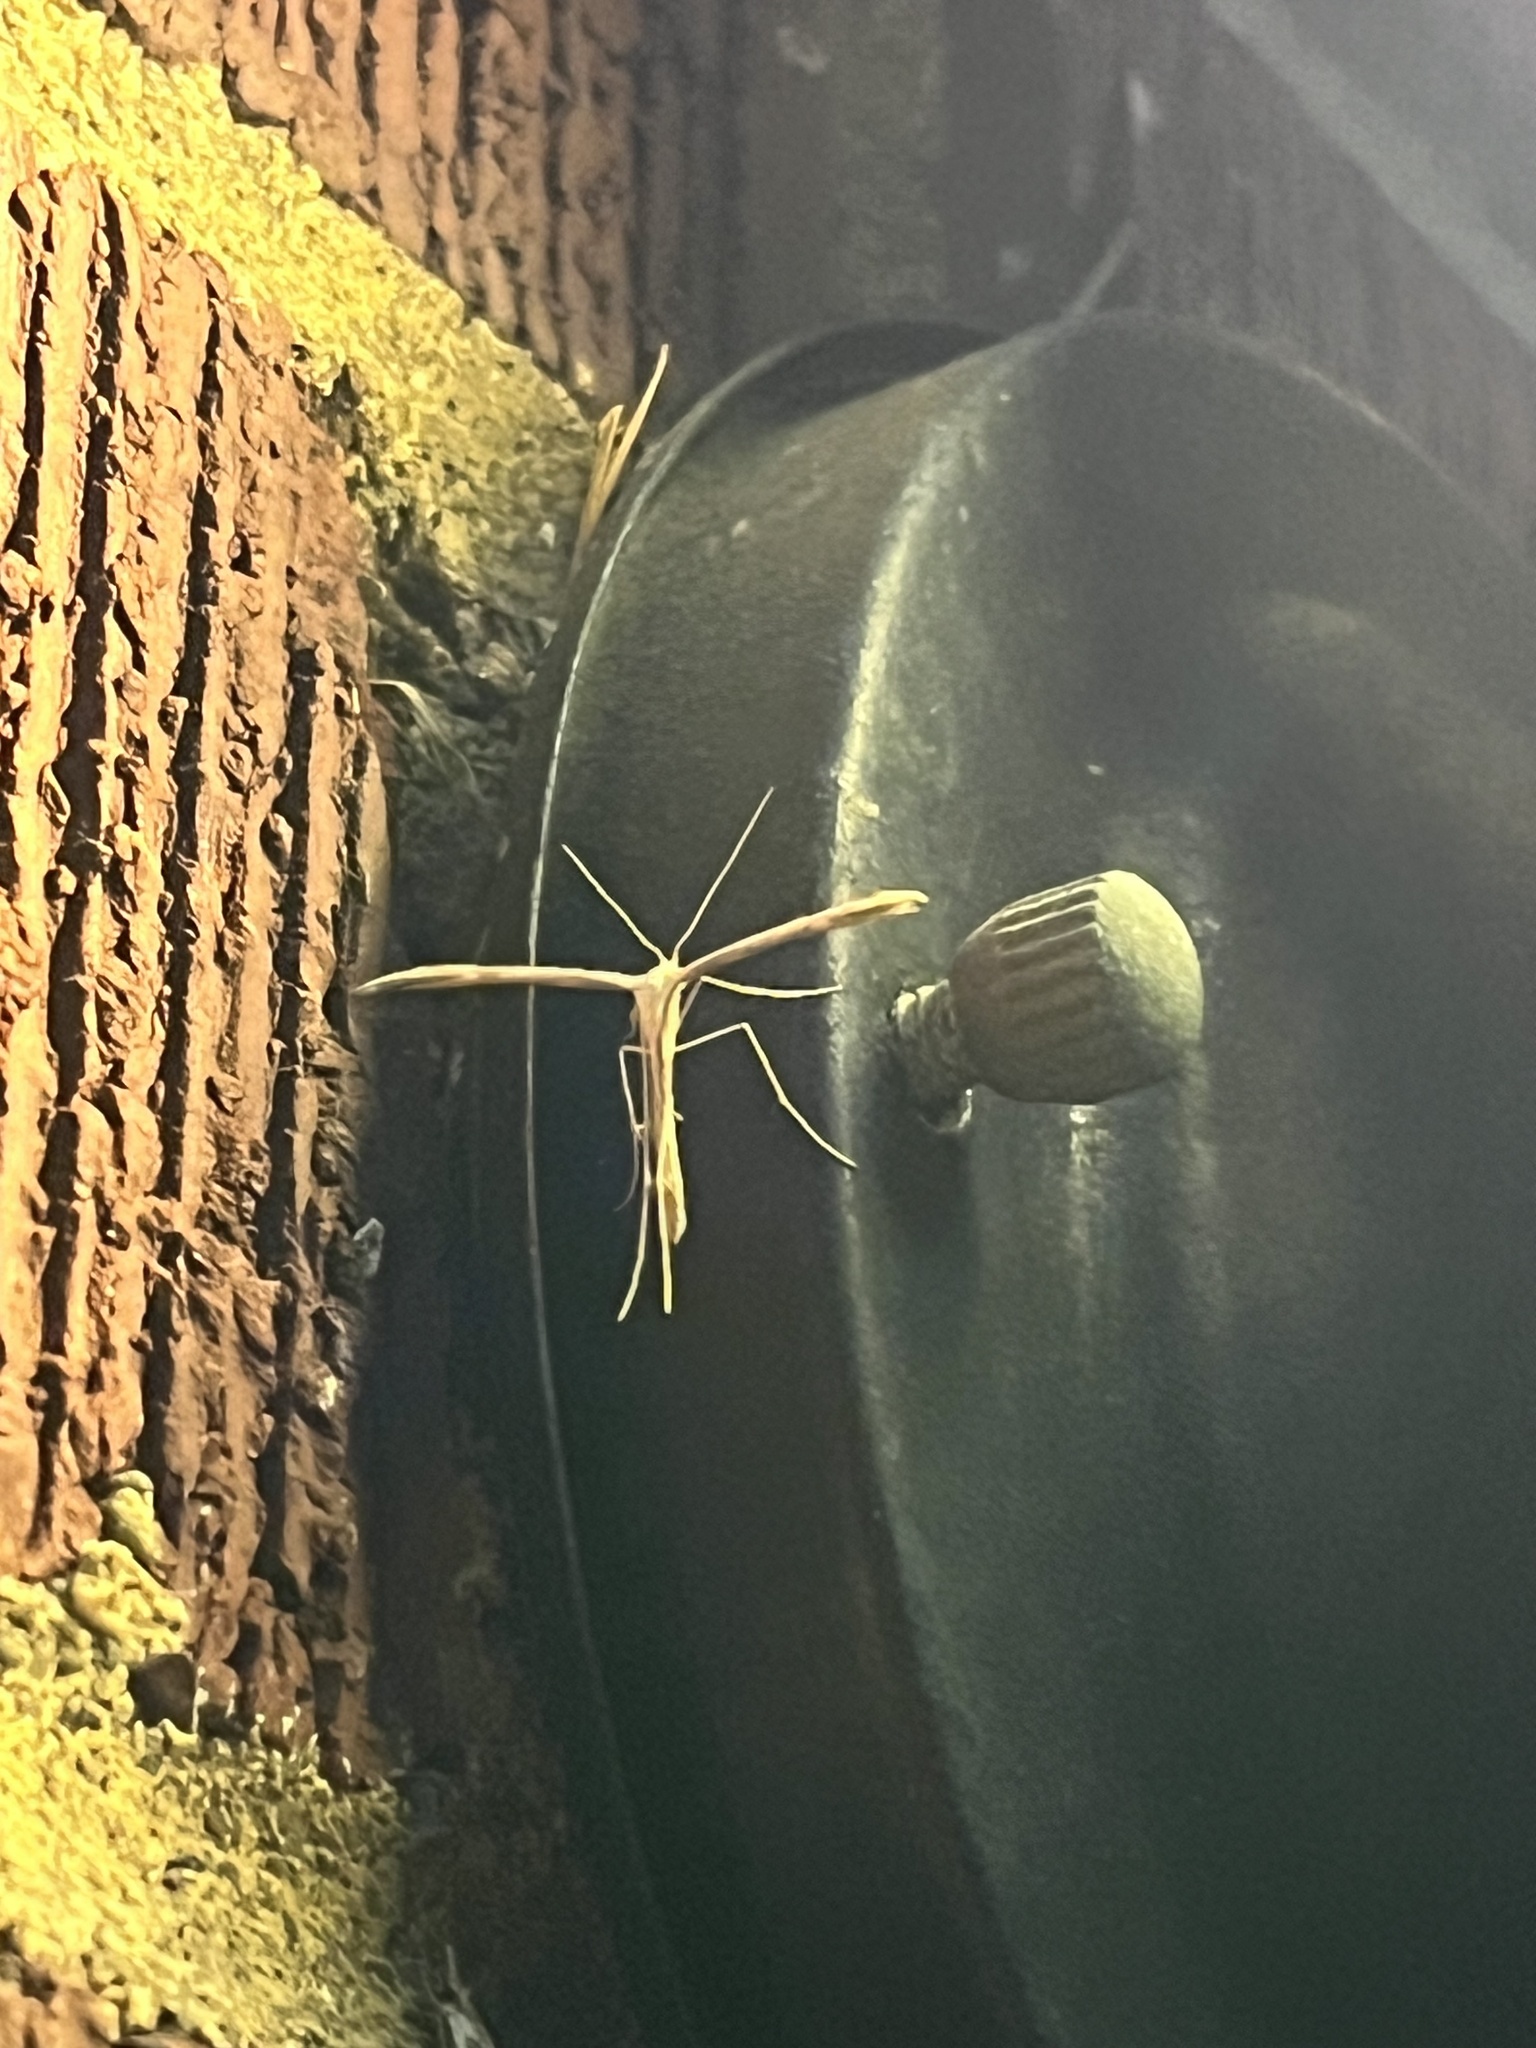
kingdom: Animalia
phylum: Arthropoda
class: Insecta
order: Lepidoptera
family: Pterophoridae
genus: Emmelina
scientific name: Emmelina monodactyla
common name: Common plume
